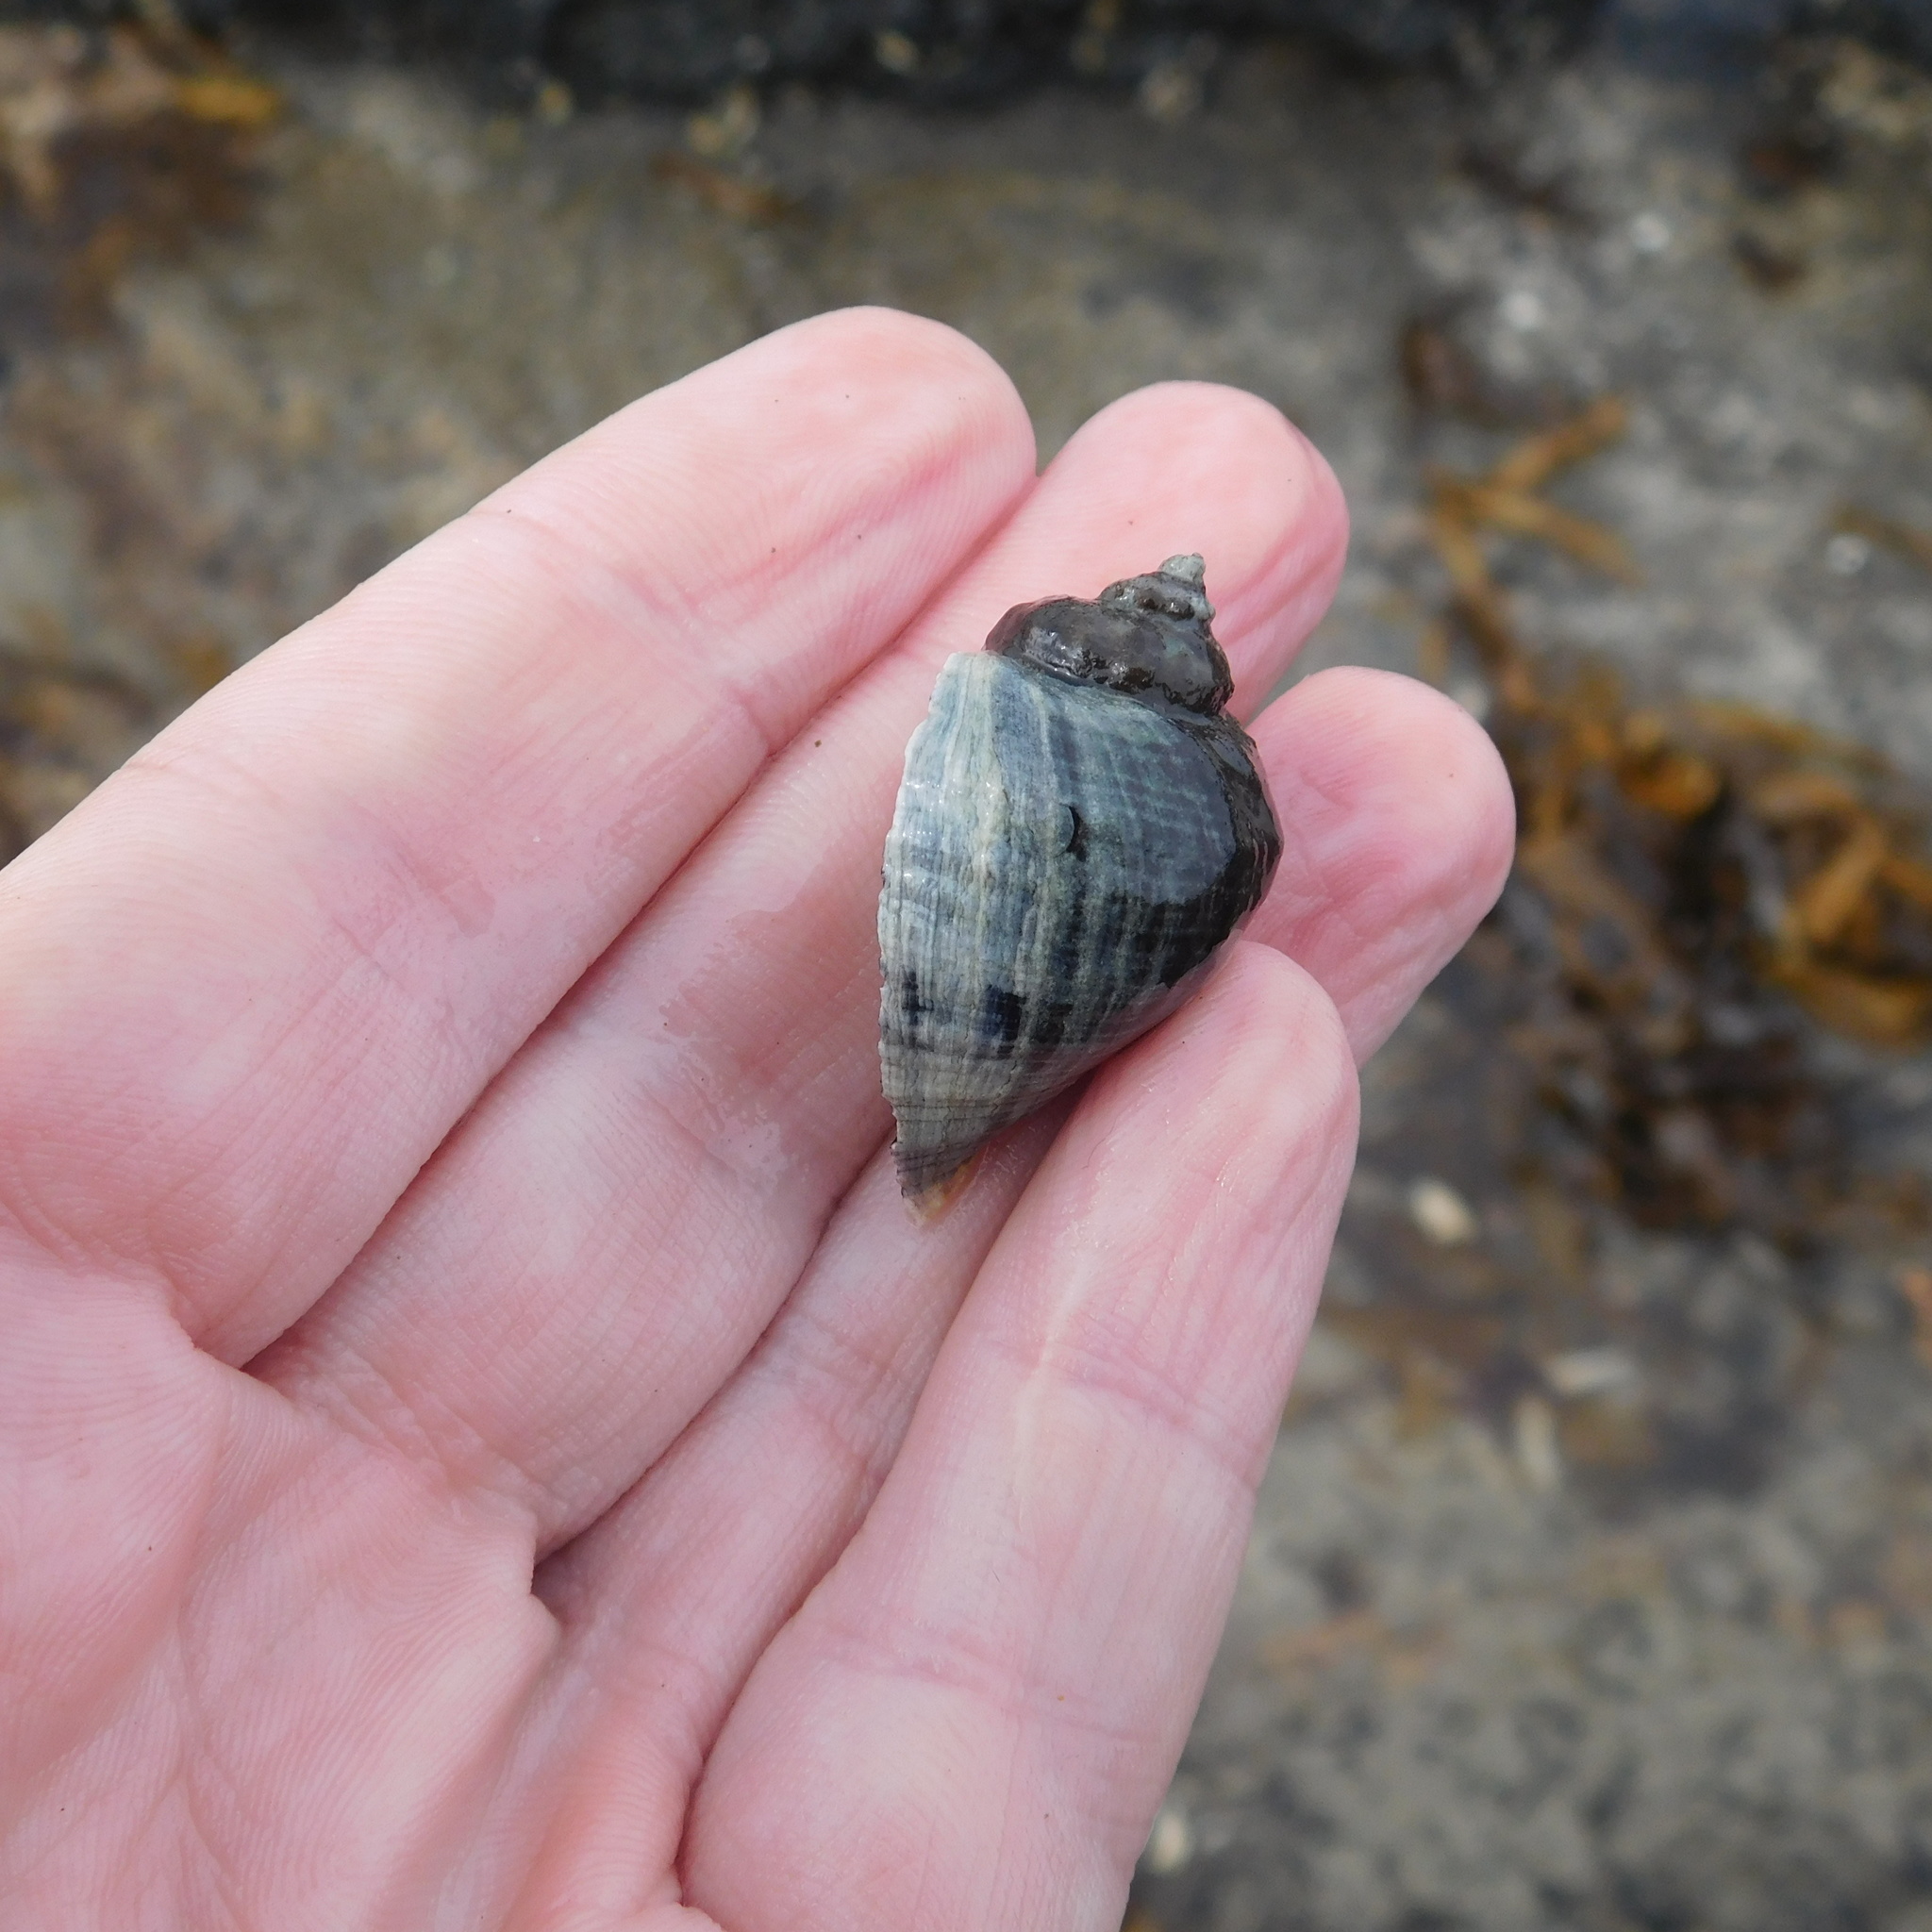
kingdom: Animalia
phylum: Mollusca
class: Gastropoda
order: Neogastropoda
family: Muricidae
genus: Haustrum
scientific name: Haustrum haustorium
